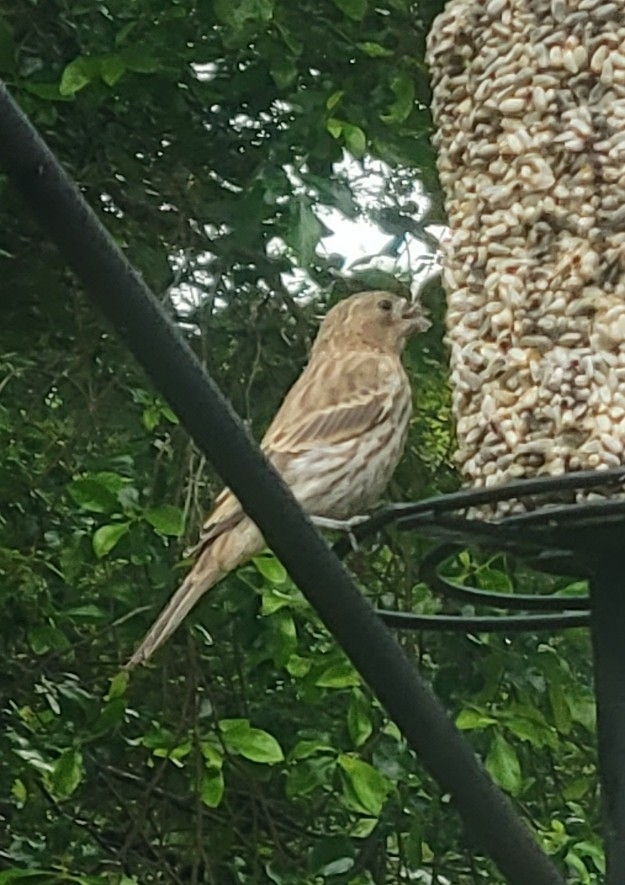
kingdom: Animalia
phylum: Chordata
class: Aves
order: Passeriformes
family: Fringillidae
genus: Haemorhous
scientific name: Haemorhous mexicanus
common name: House finch
